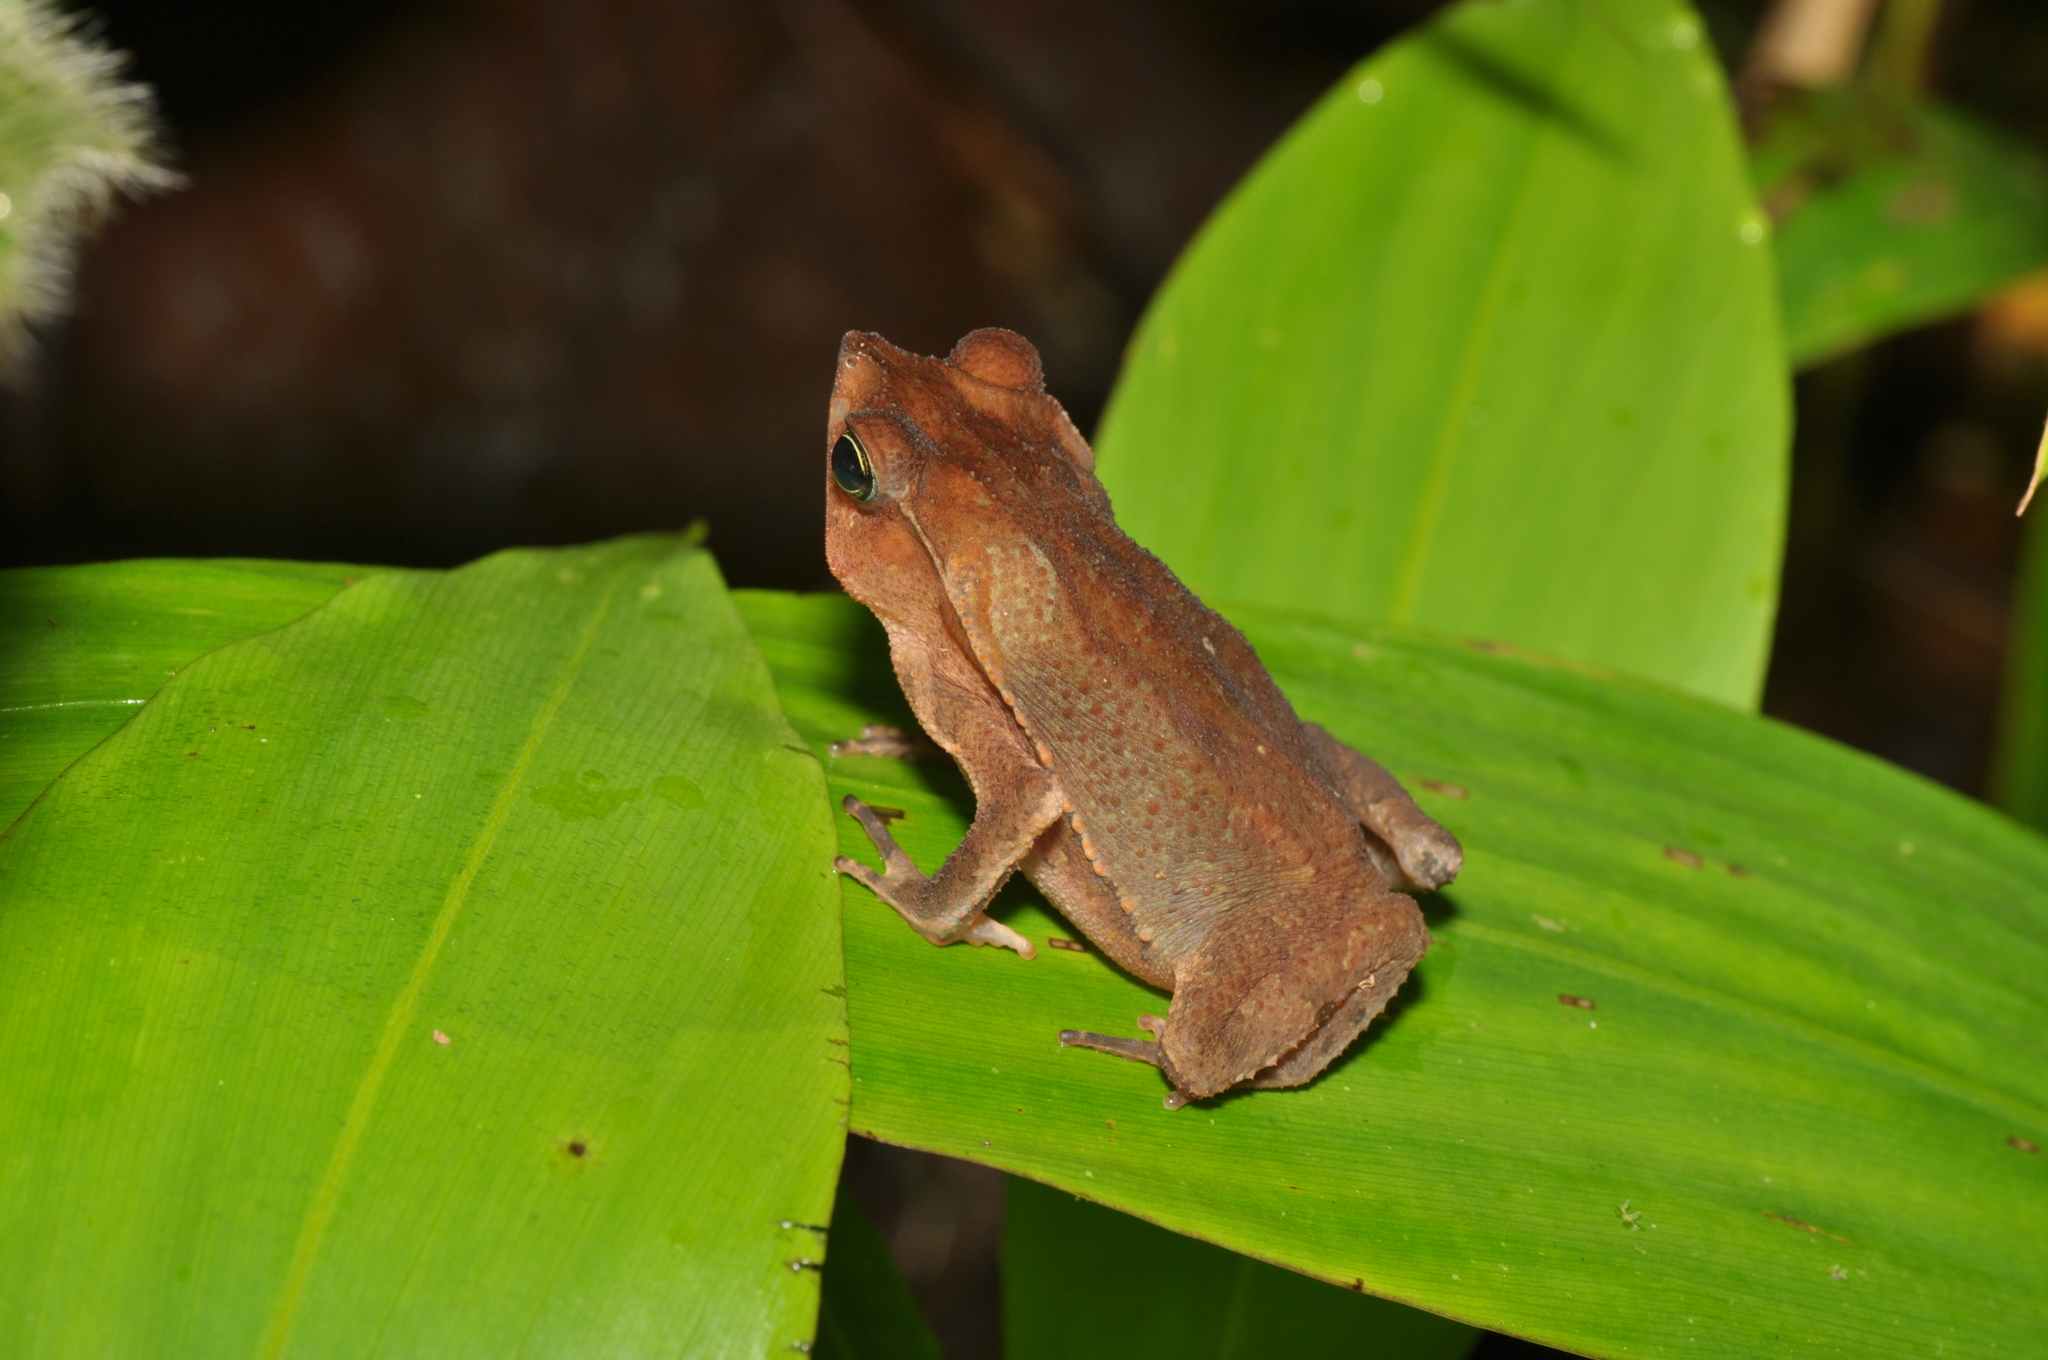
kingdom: Animalia
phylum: Chordata
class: Amphibia
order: Anura
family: Bufonidae
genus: Rhinella
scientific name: Rhinella margaritifera
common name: Mitred toad
